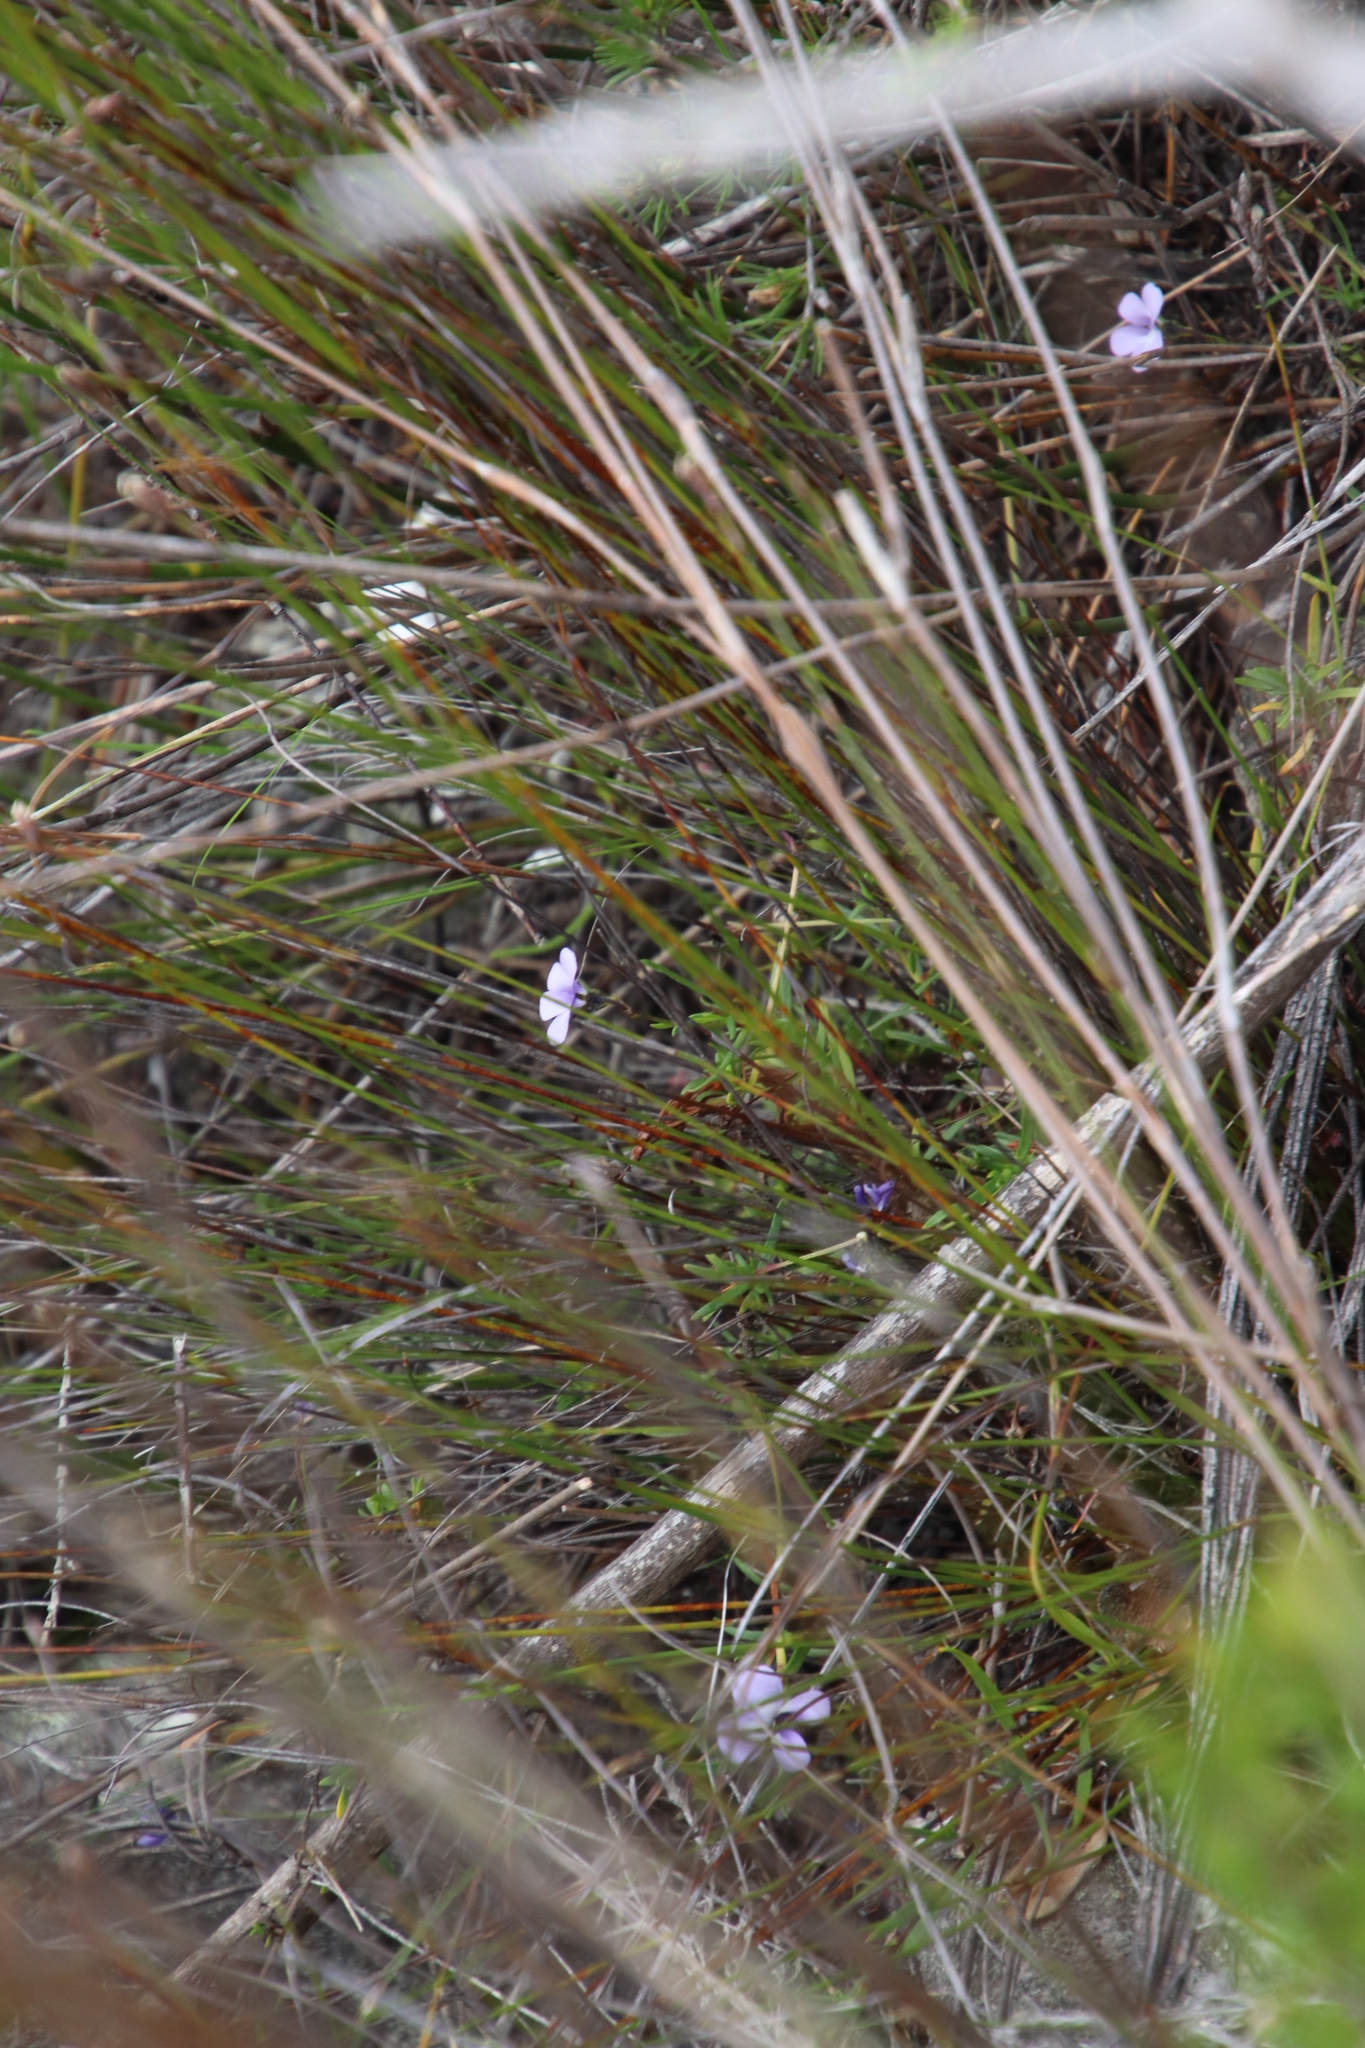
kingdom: Plantae
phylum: Tracheophyta
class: Magnoliopsida
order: Malpighiales
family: Violaceae
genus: Viola
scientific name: Viola decumbens
